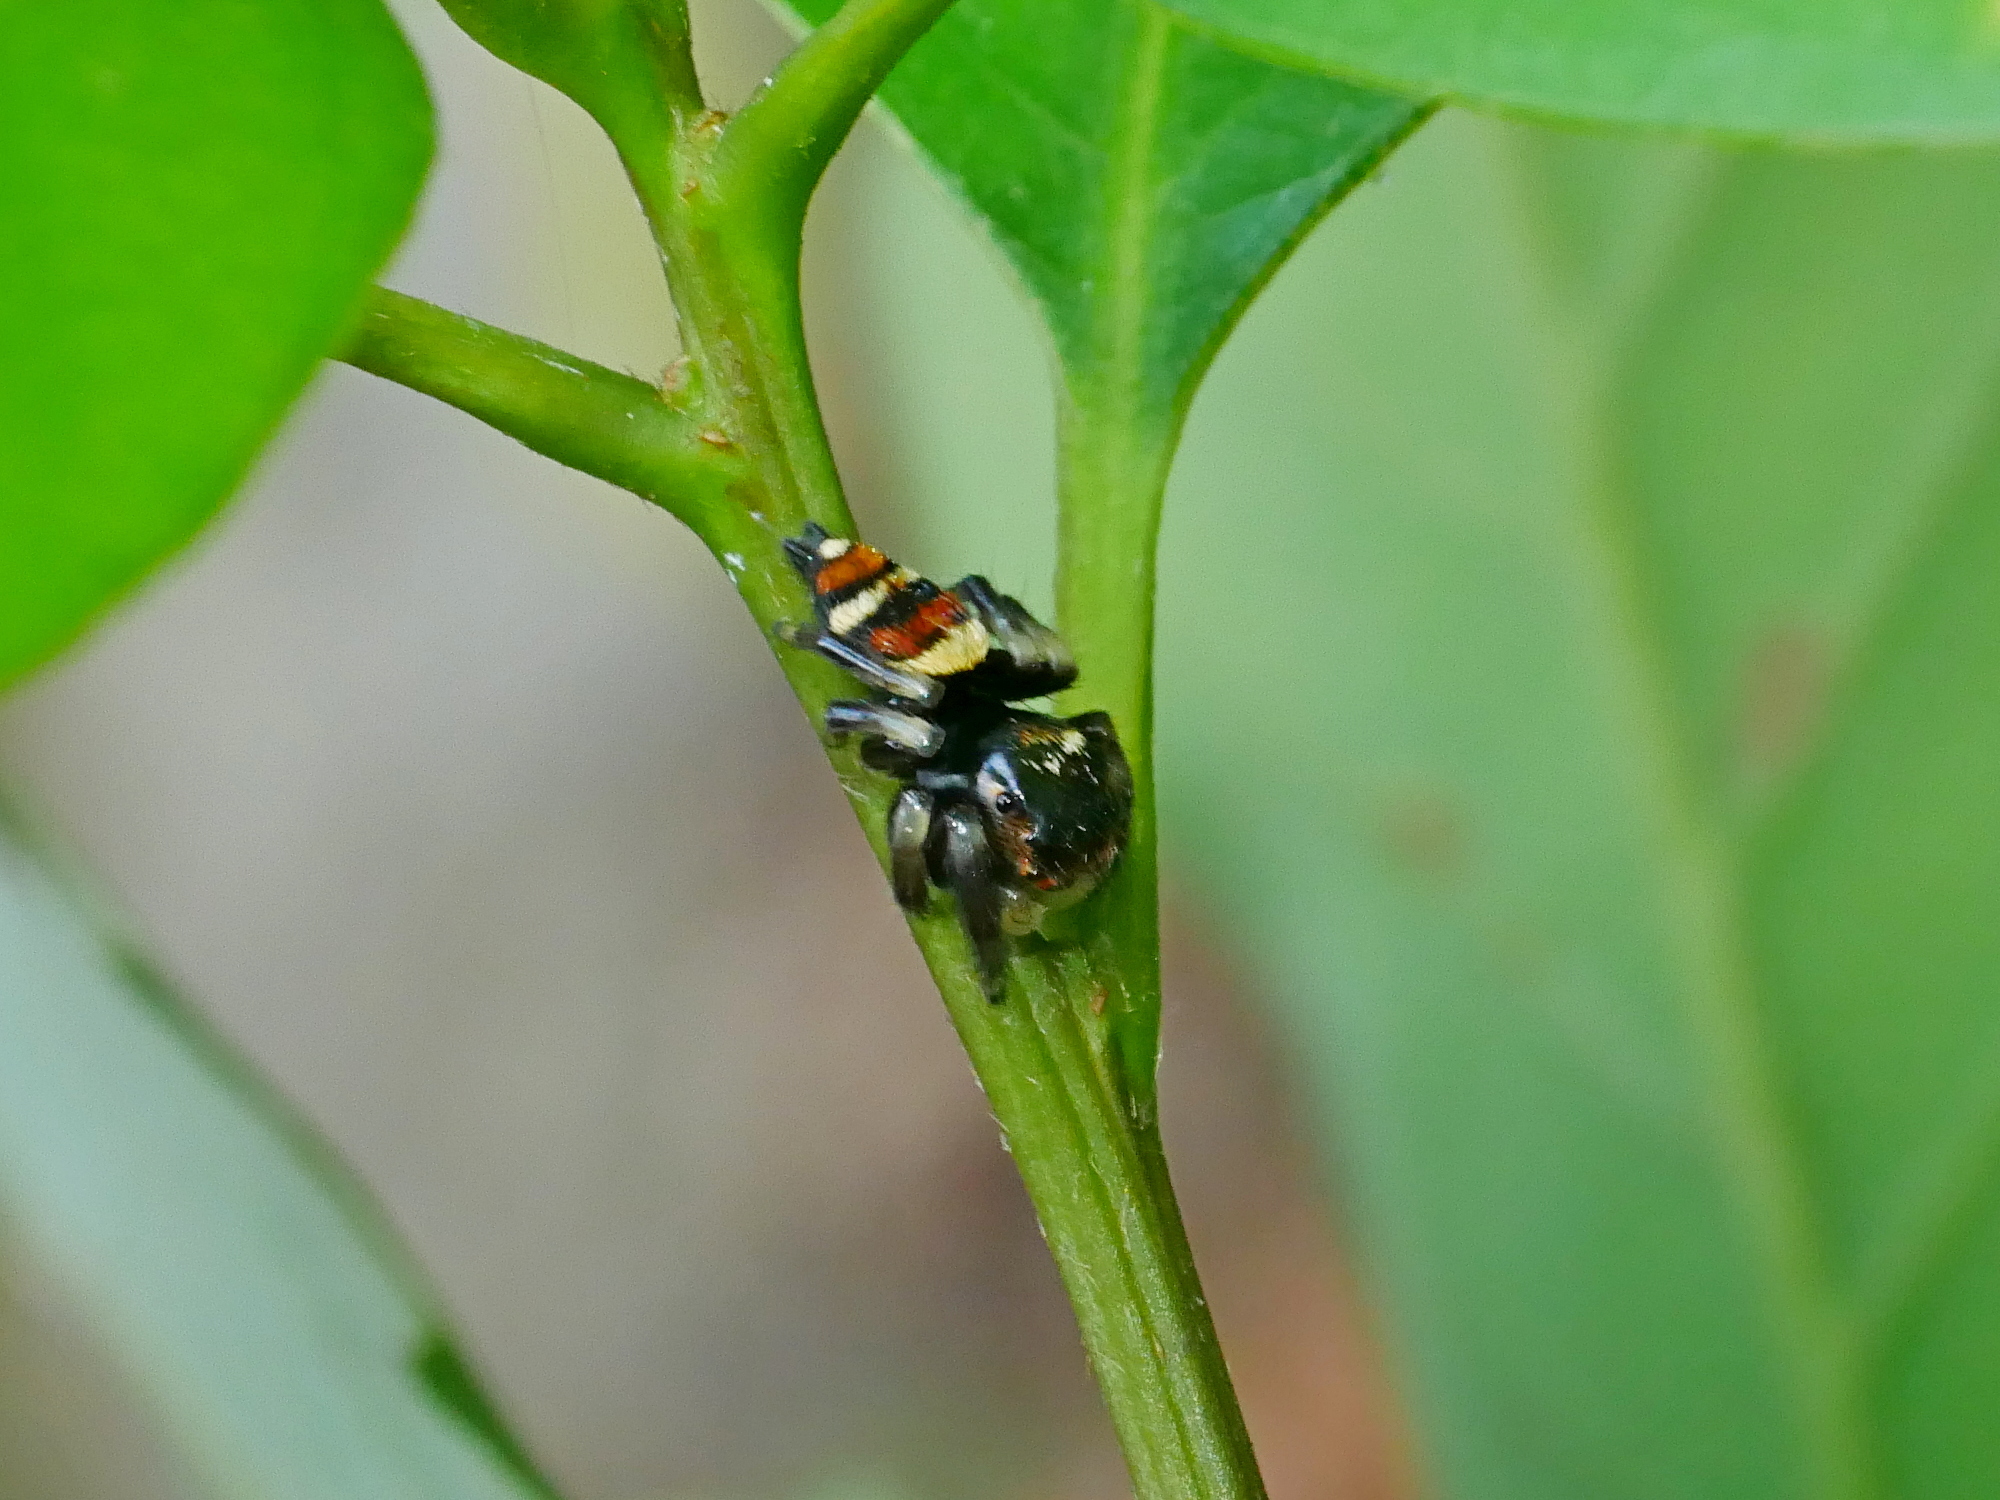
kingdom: Animalia
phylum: Arthropoda
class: Arachnida
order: Araneae
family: Salticidae
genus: Ptocasius
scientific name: Ptocasius strupifer
